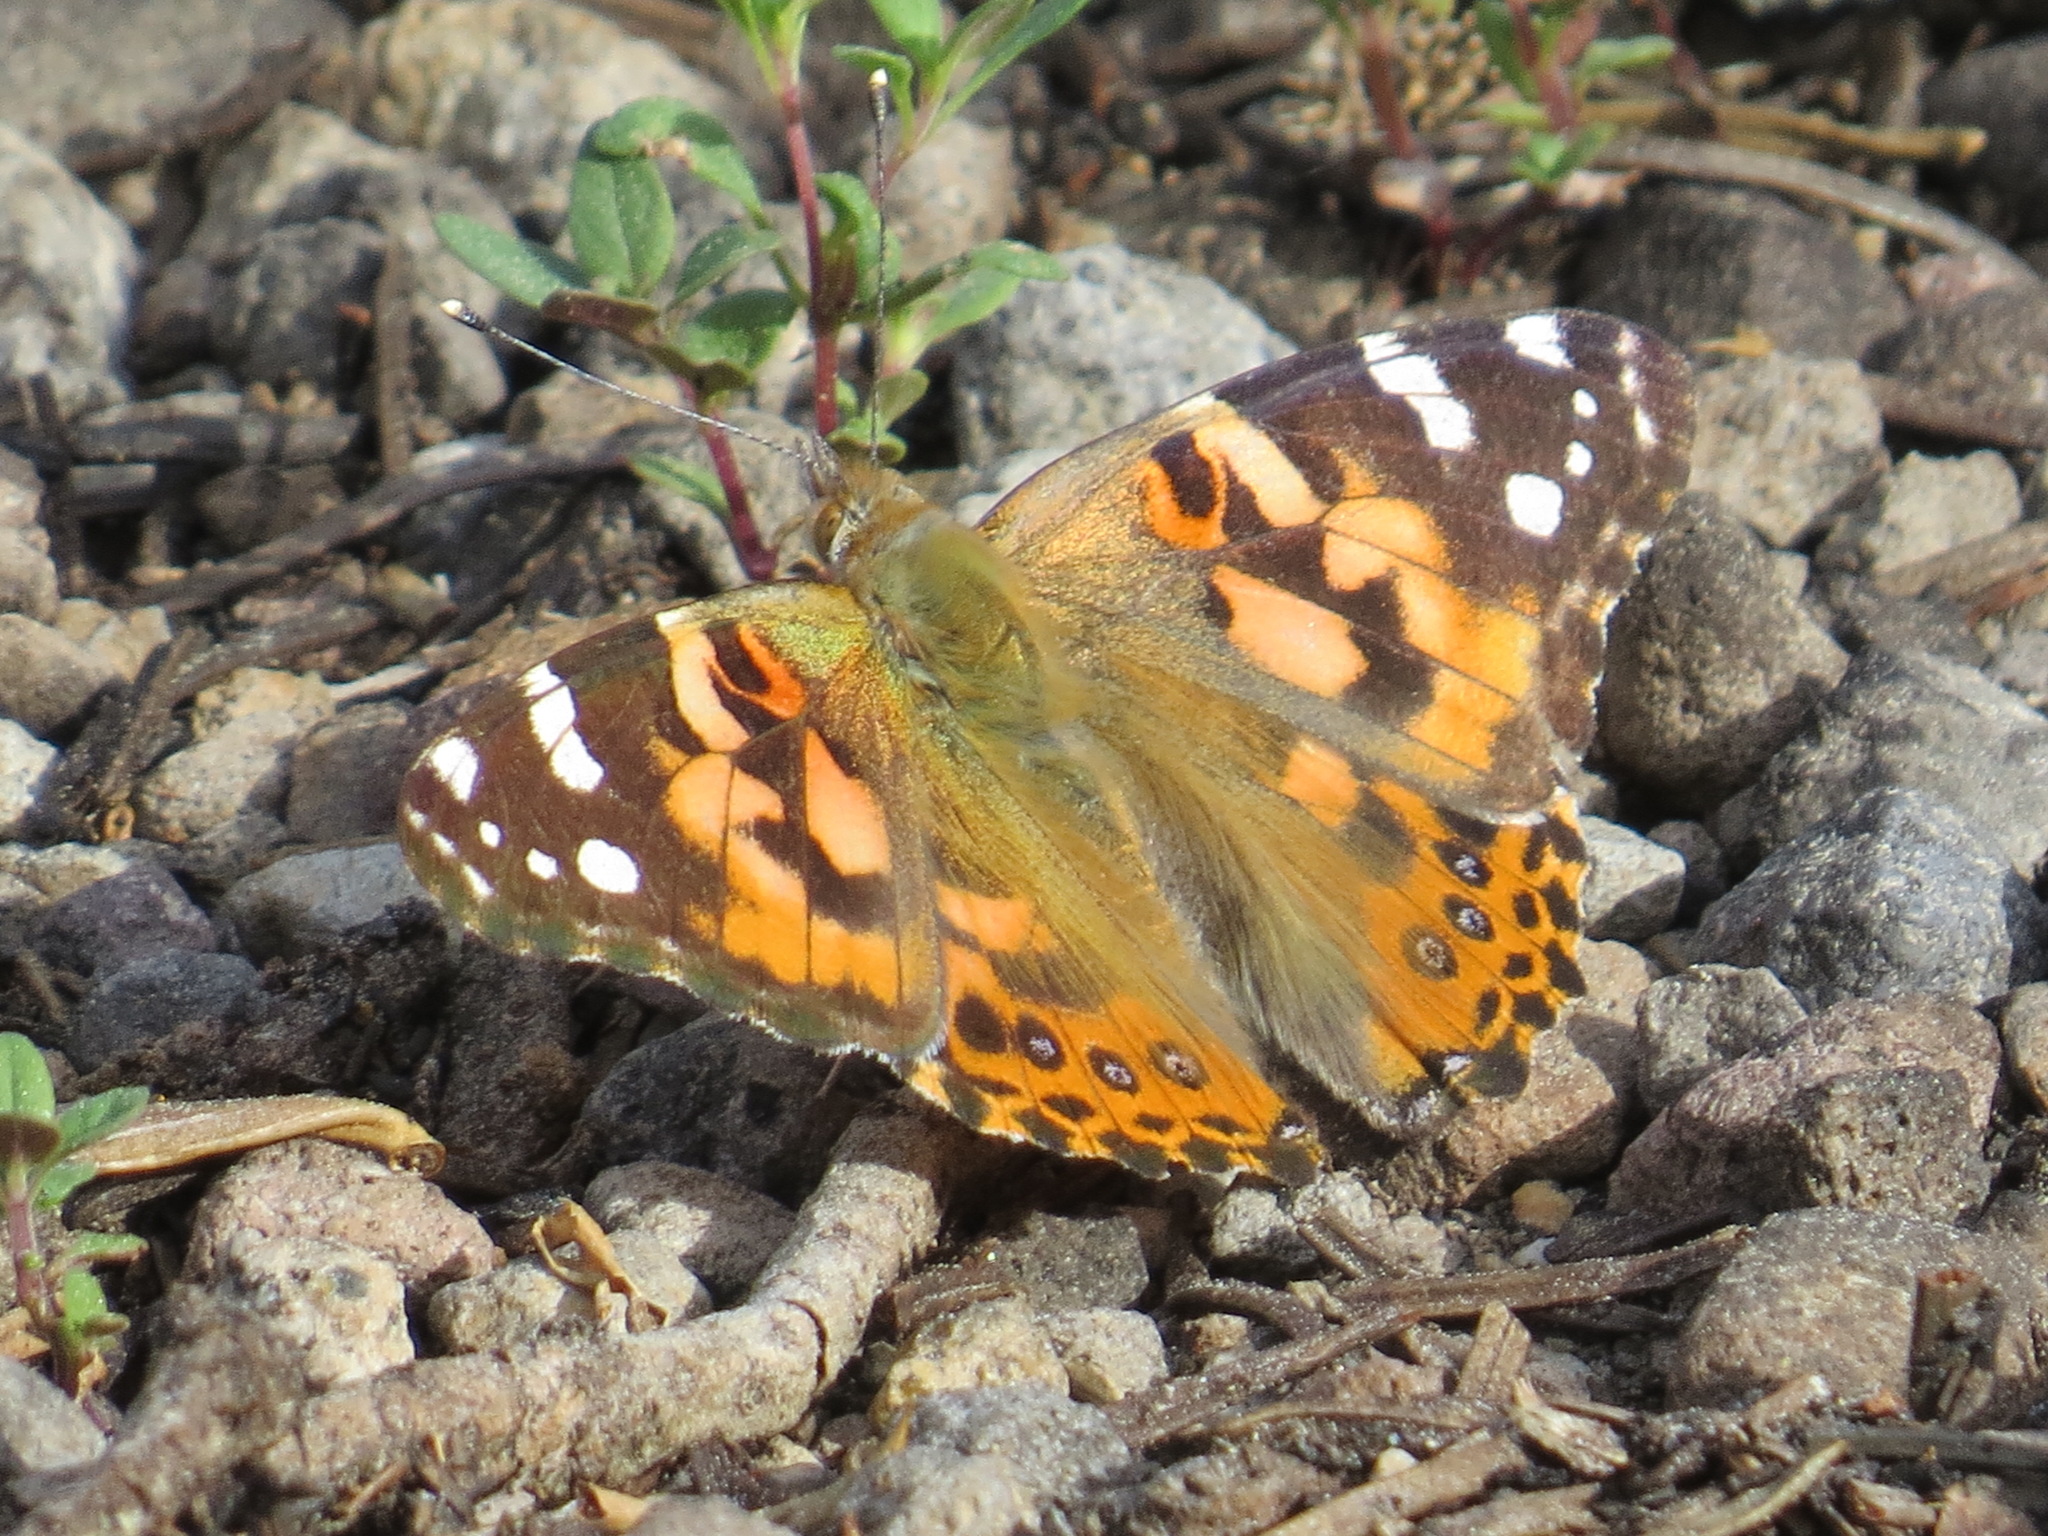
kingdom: Animalia
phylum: Arthropoda
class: Insecta
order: Lepidoptera
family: Nymphalidae
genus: Vanessa
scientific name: Vanessa cardui
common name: Painted lady
